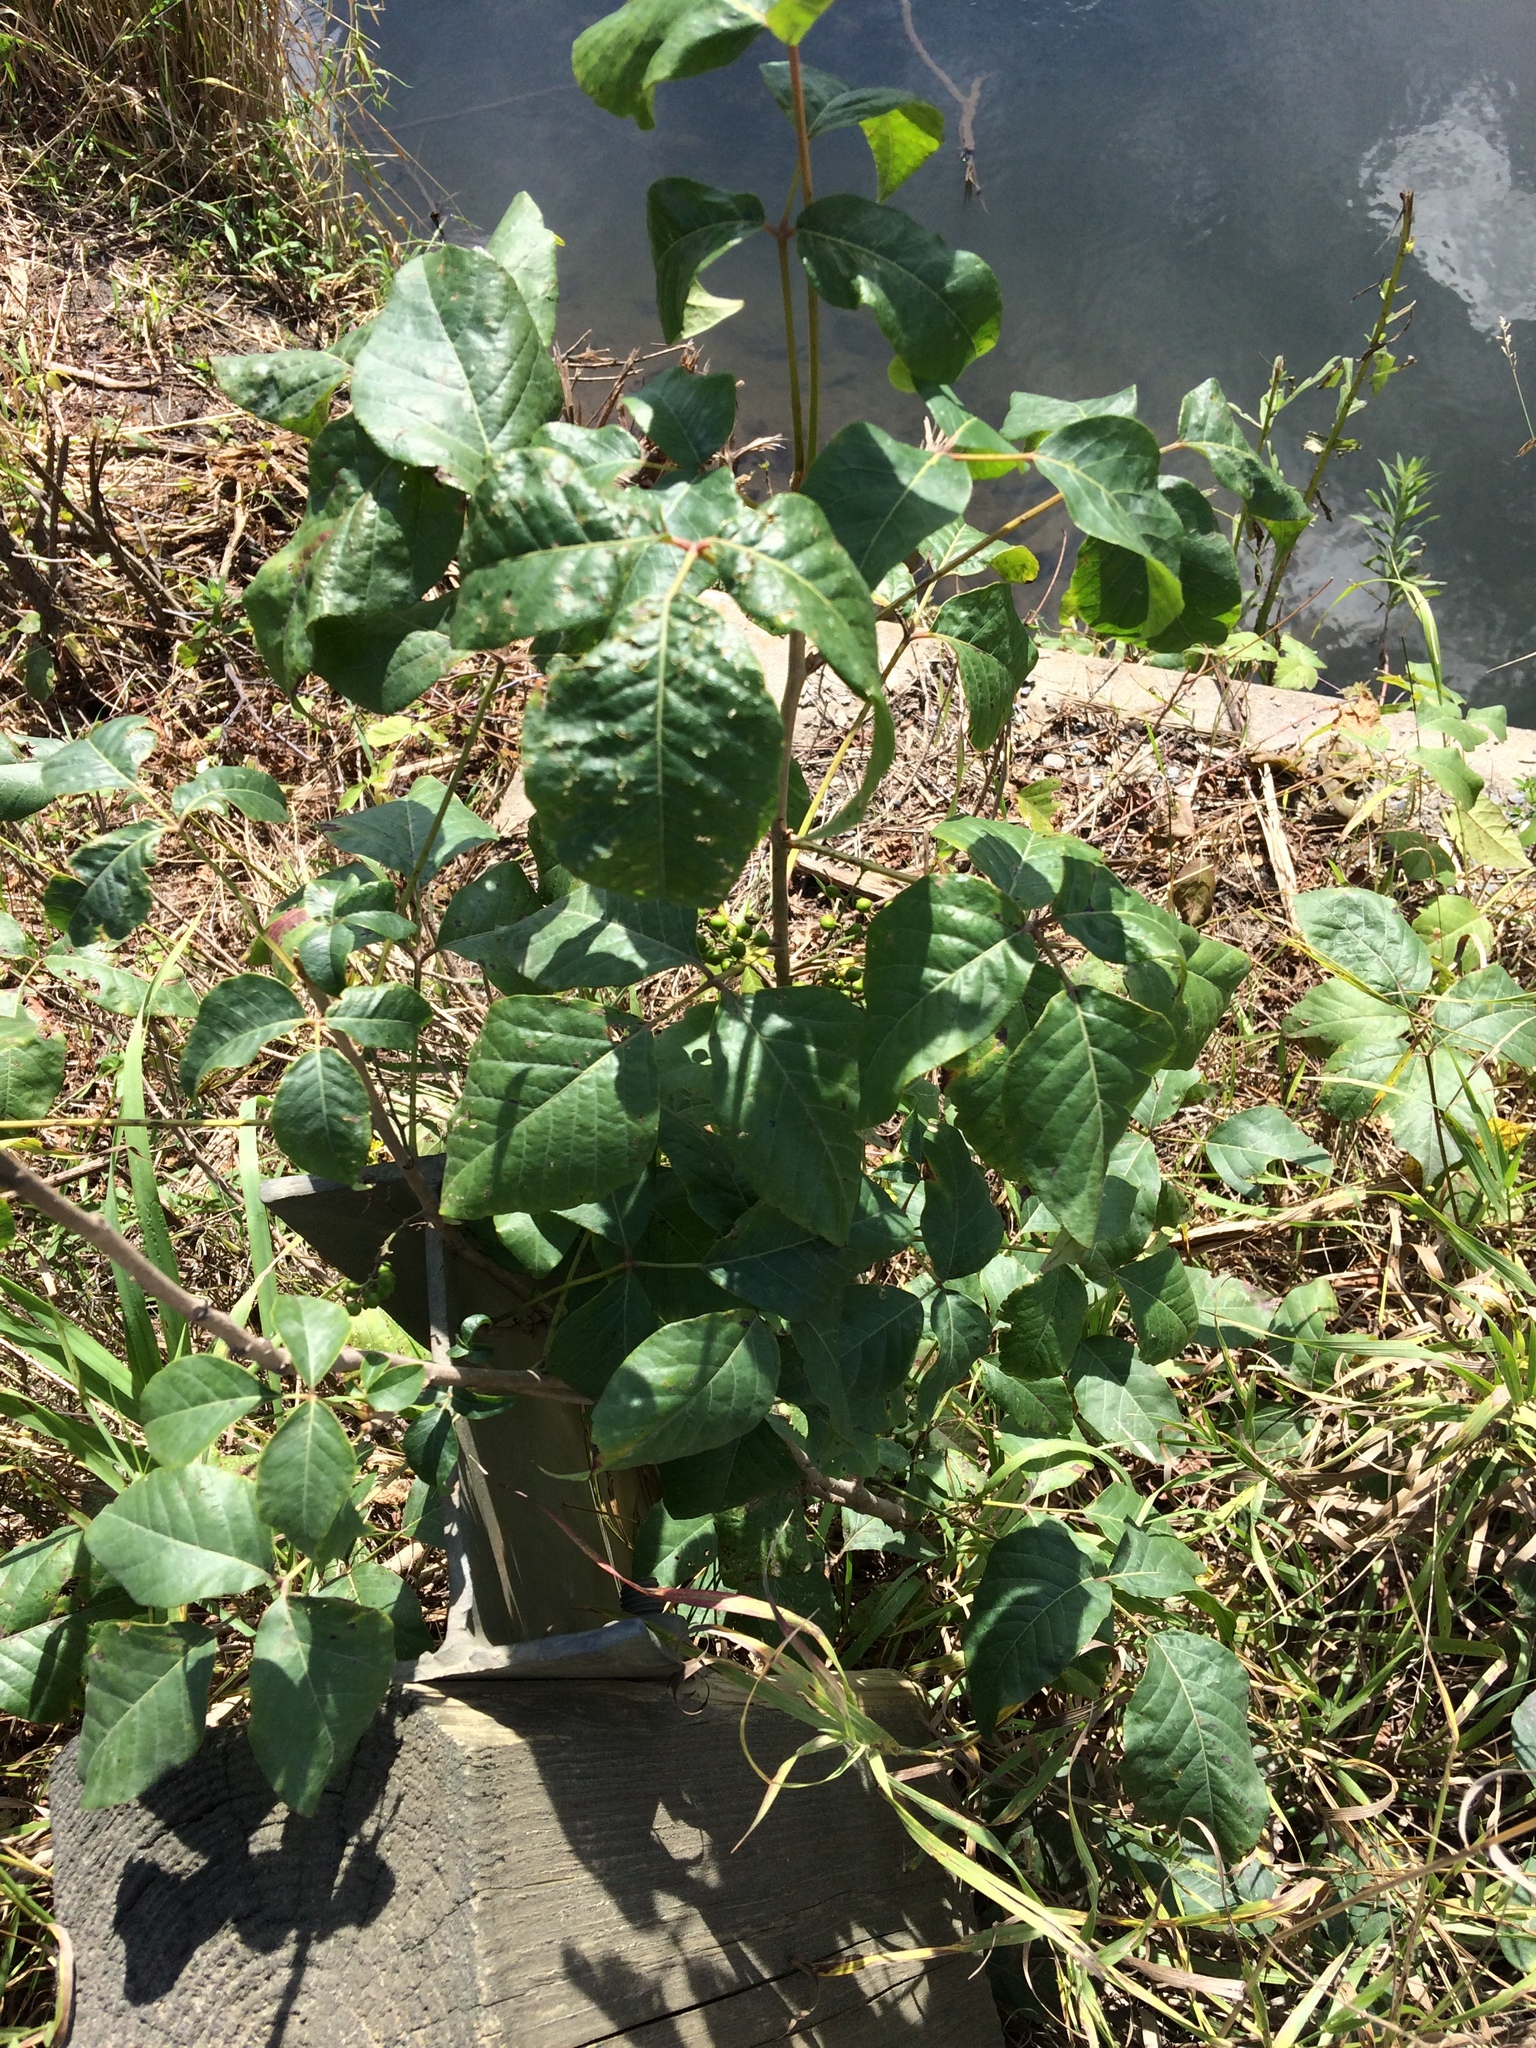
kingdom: Plantae
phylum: Tracheophyta
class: Magnoliopsida
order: Sapindales
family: Anacardiaceae
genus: Toxicodendron
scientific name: Toxicodendron rydbergii
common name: Rydberg's poison-ivy
